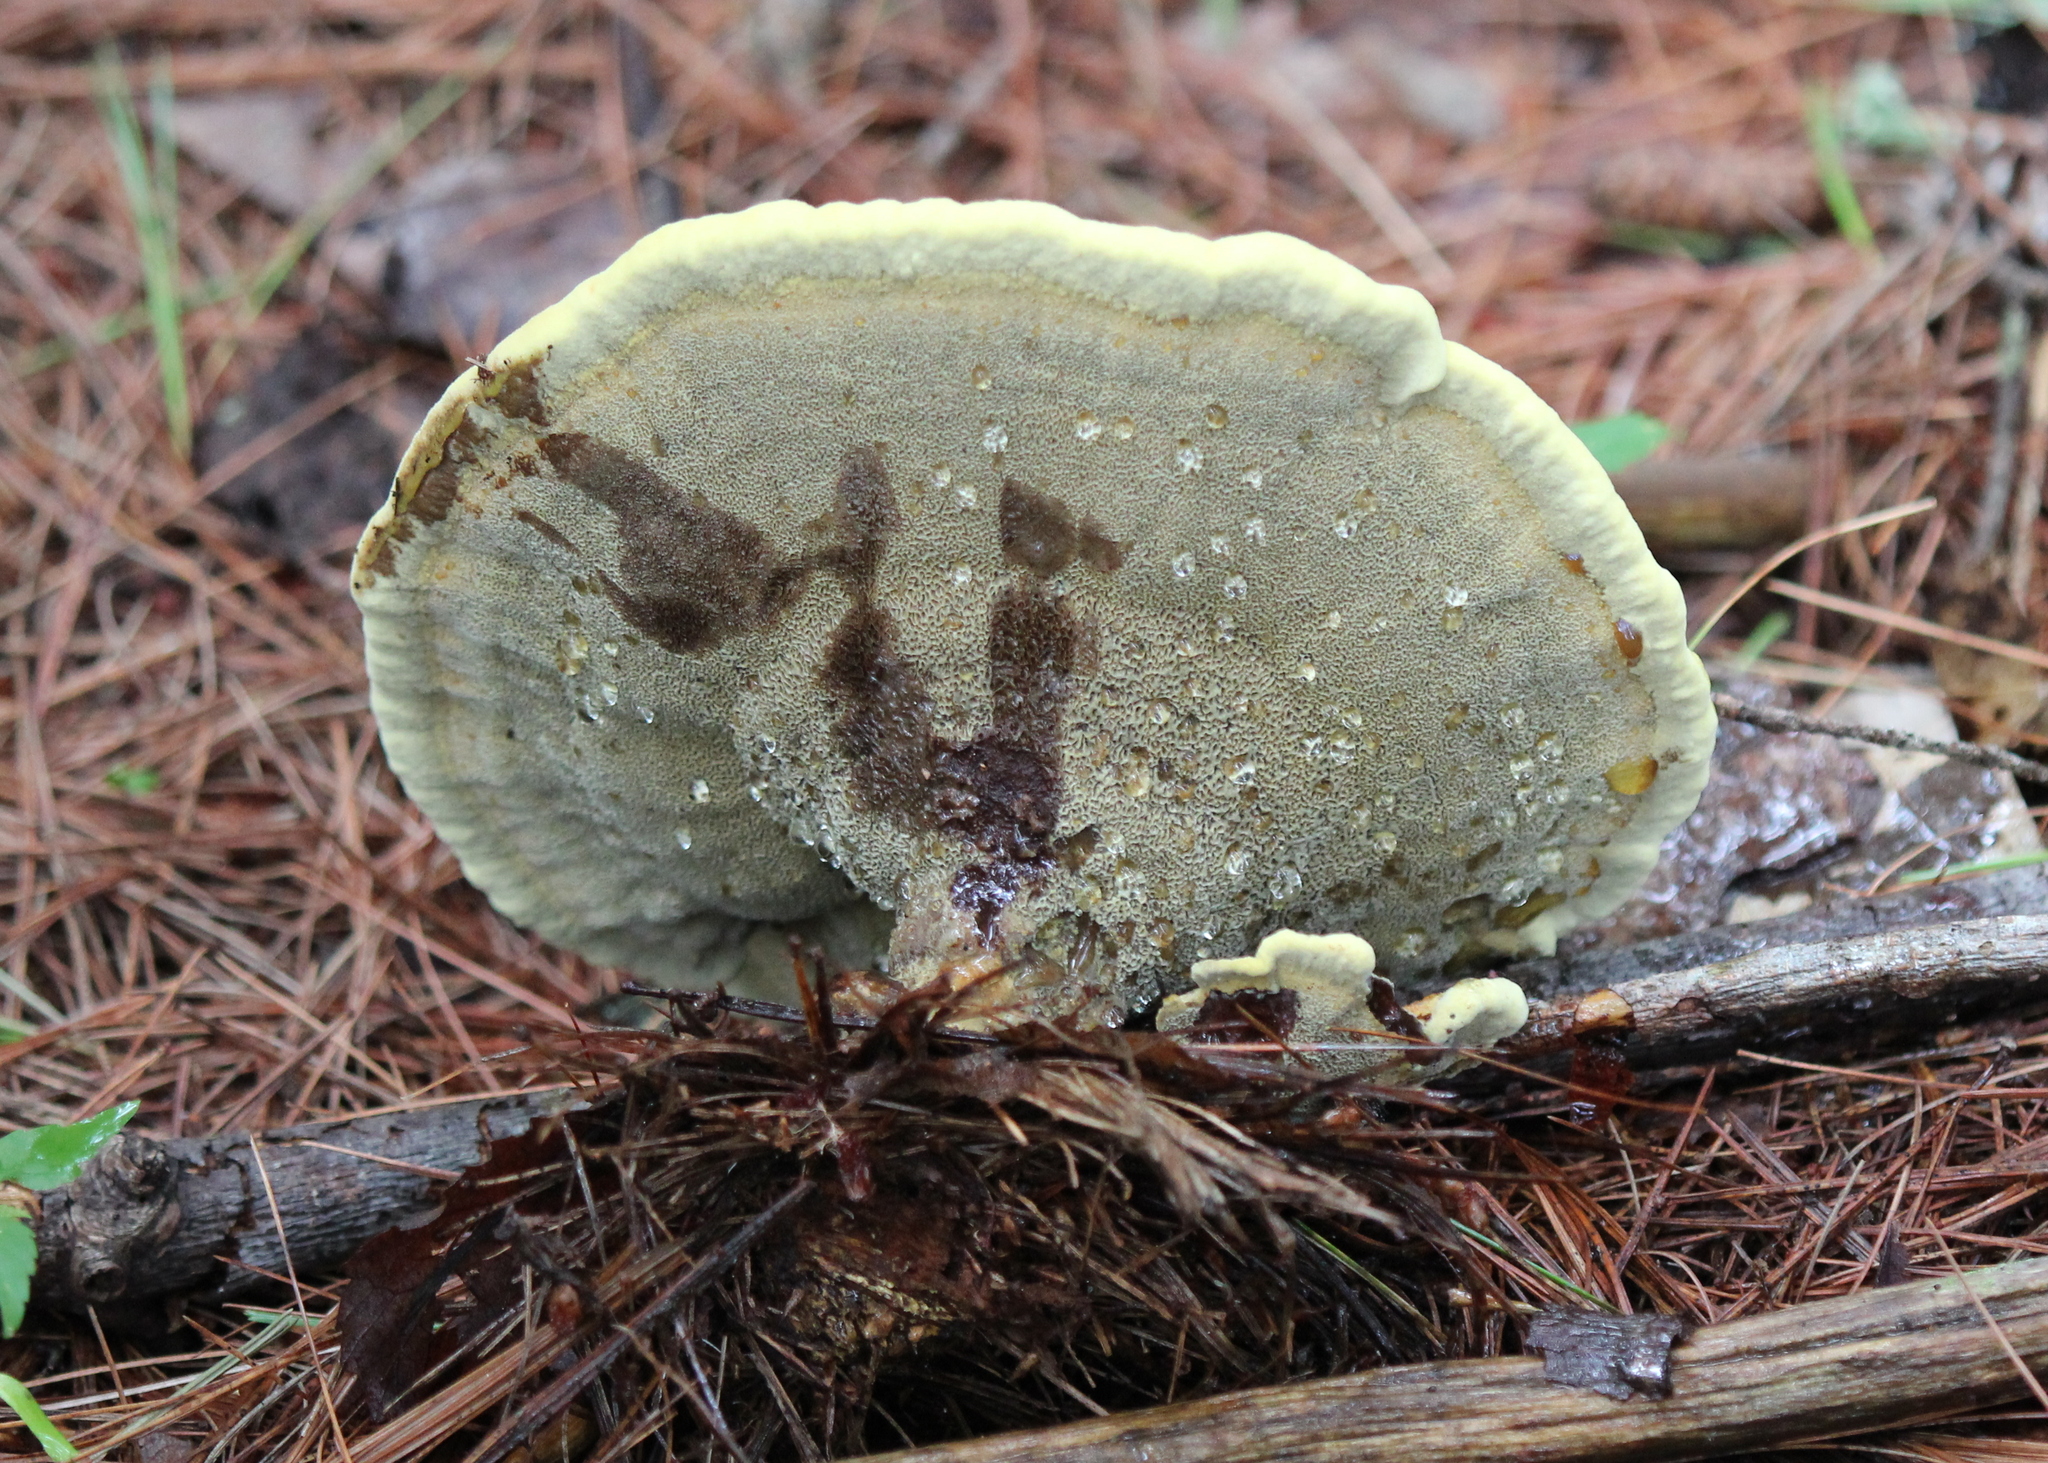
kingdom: Fungi
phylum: Basidiomycota
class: Agaricomycetes
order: Polyporales
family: Laetiporaceae
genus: Phaeolus
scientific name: Phaeolus schweinitzii
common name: Dyer's mazegill
